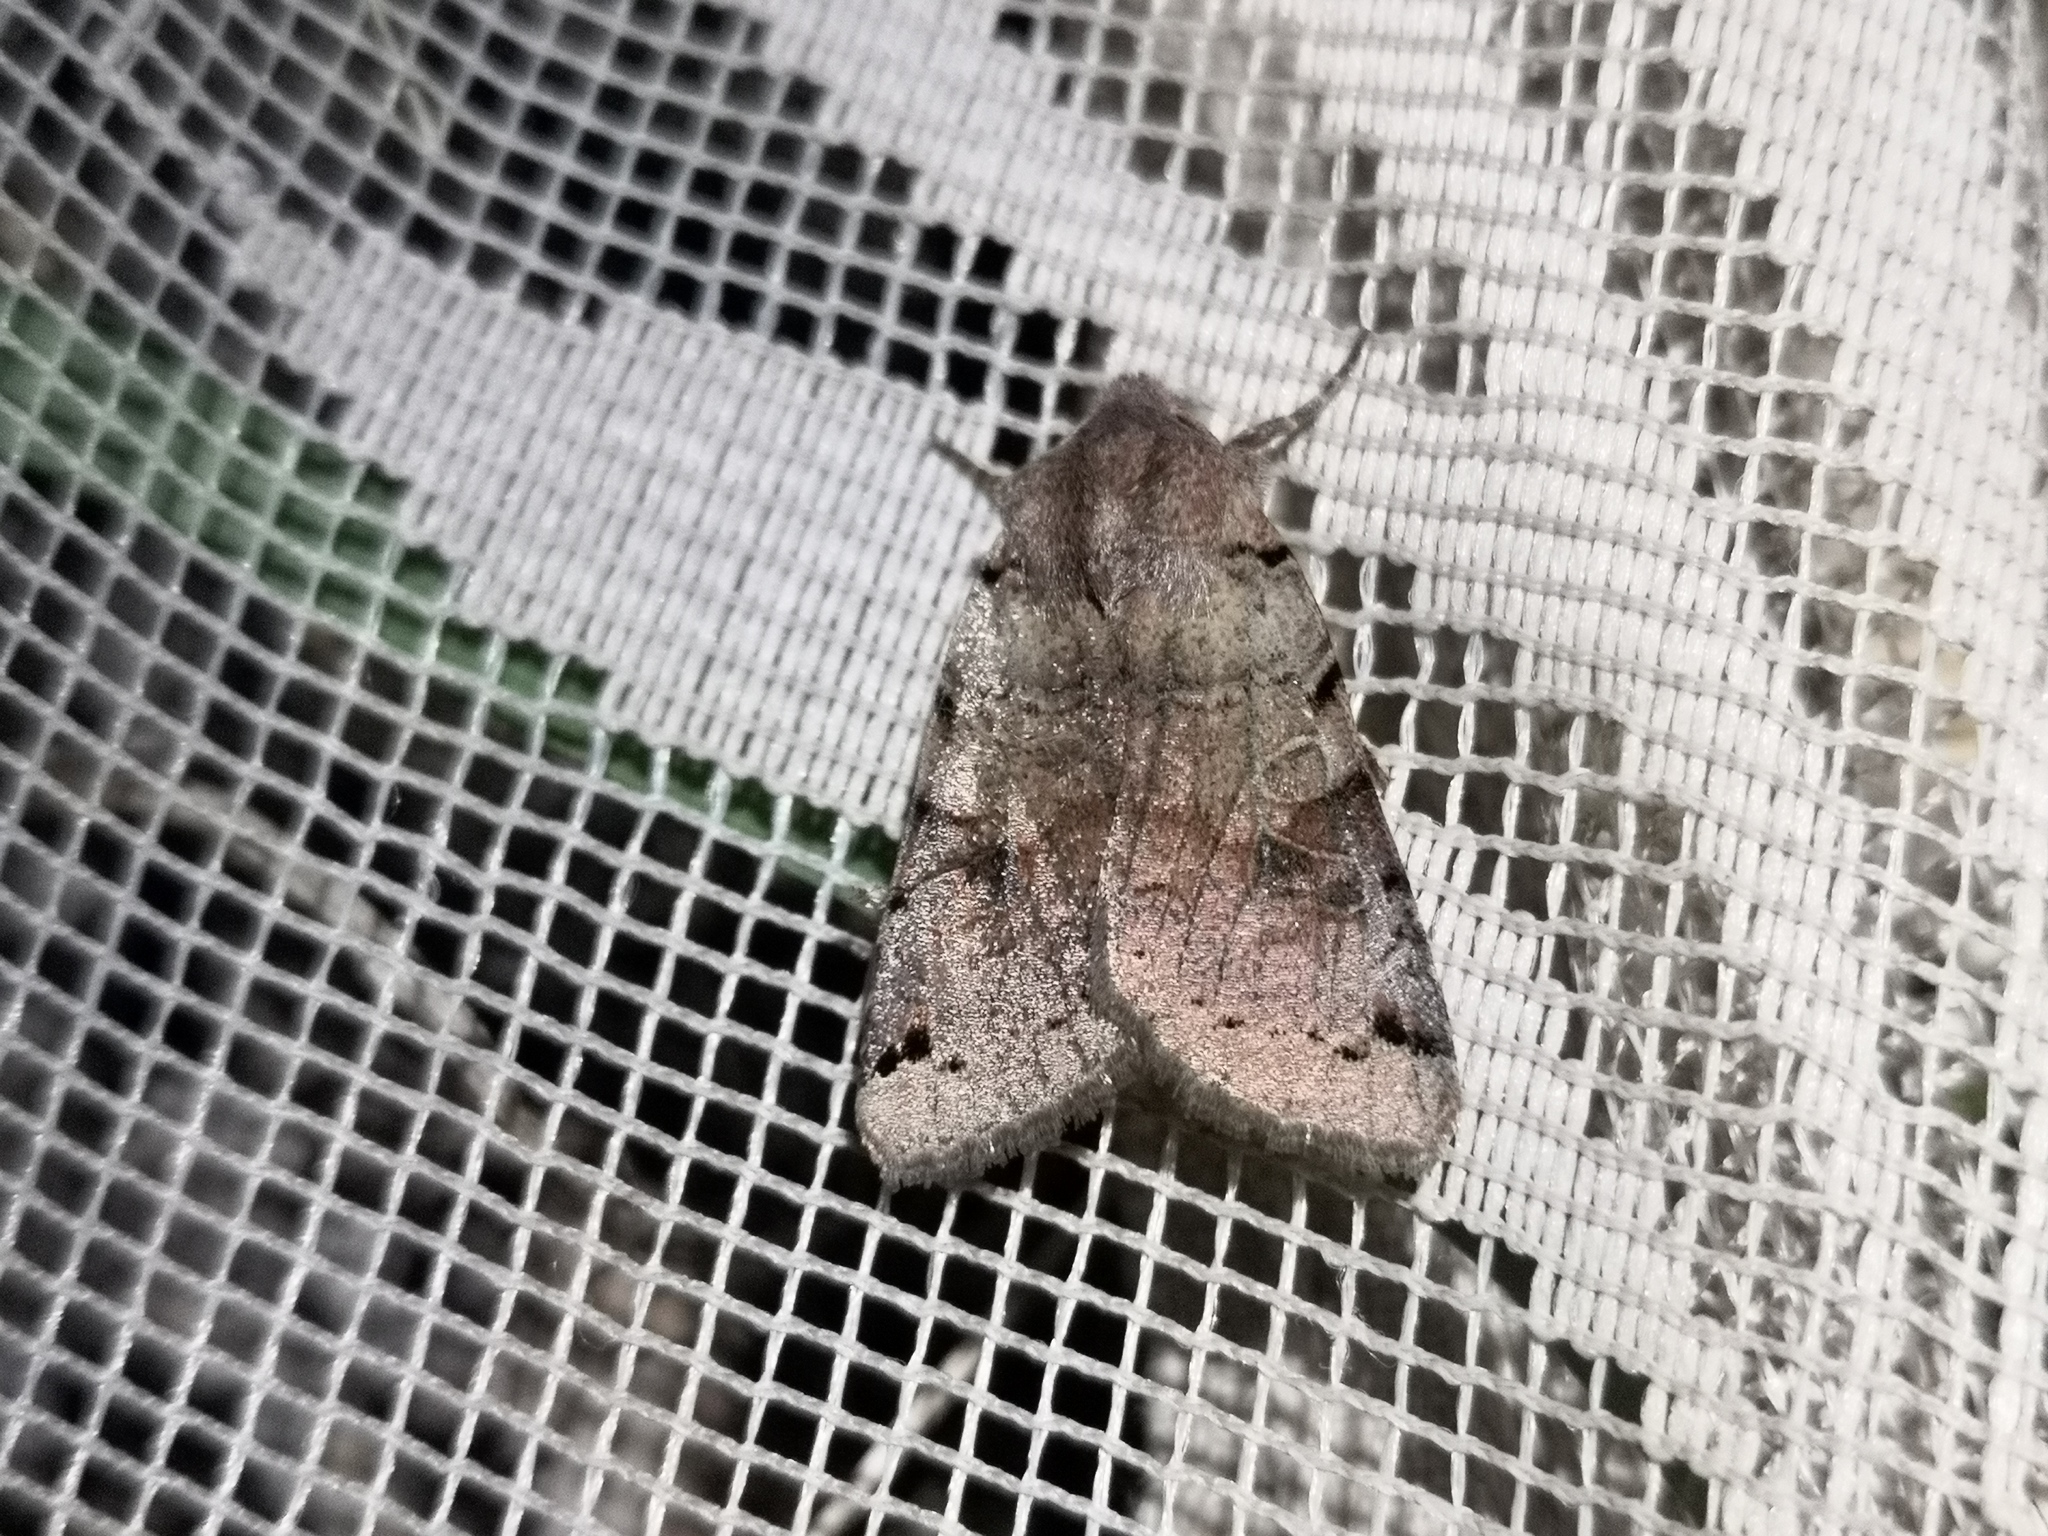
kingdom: Animalia
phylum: Arthropoda
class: Insecta
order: Lepidoptera
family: Noctuidae
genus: Agrochola
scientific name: Agrochola litura
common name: Brown-spot pinion
